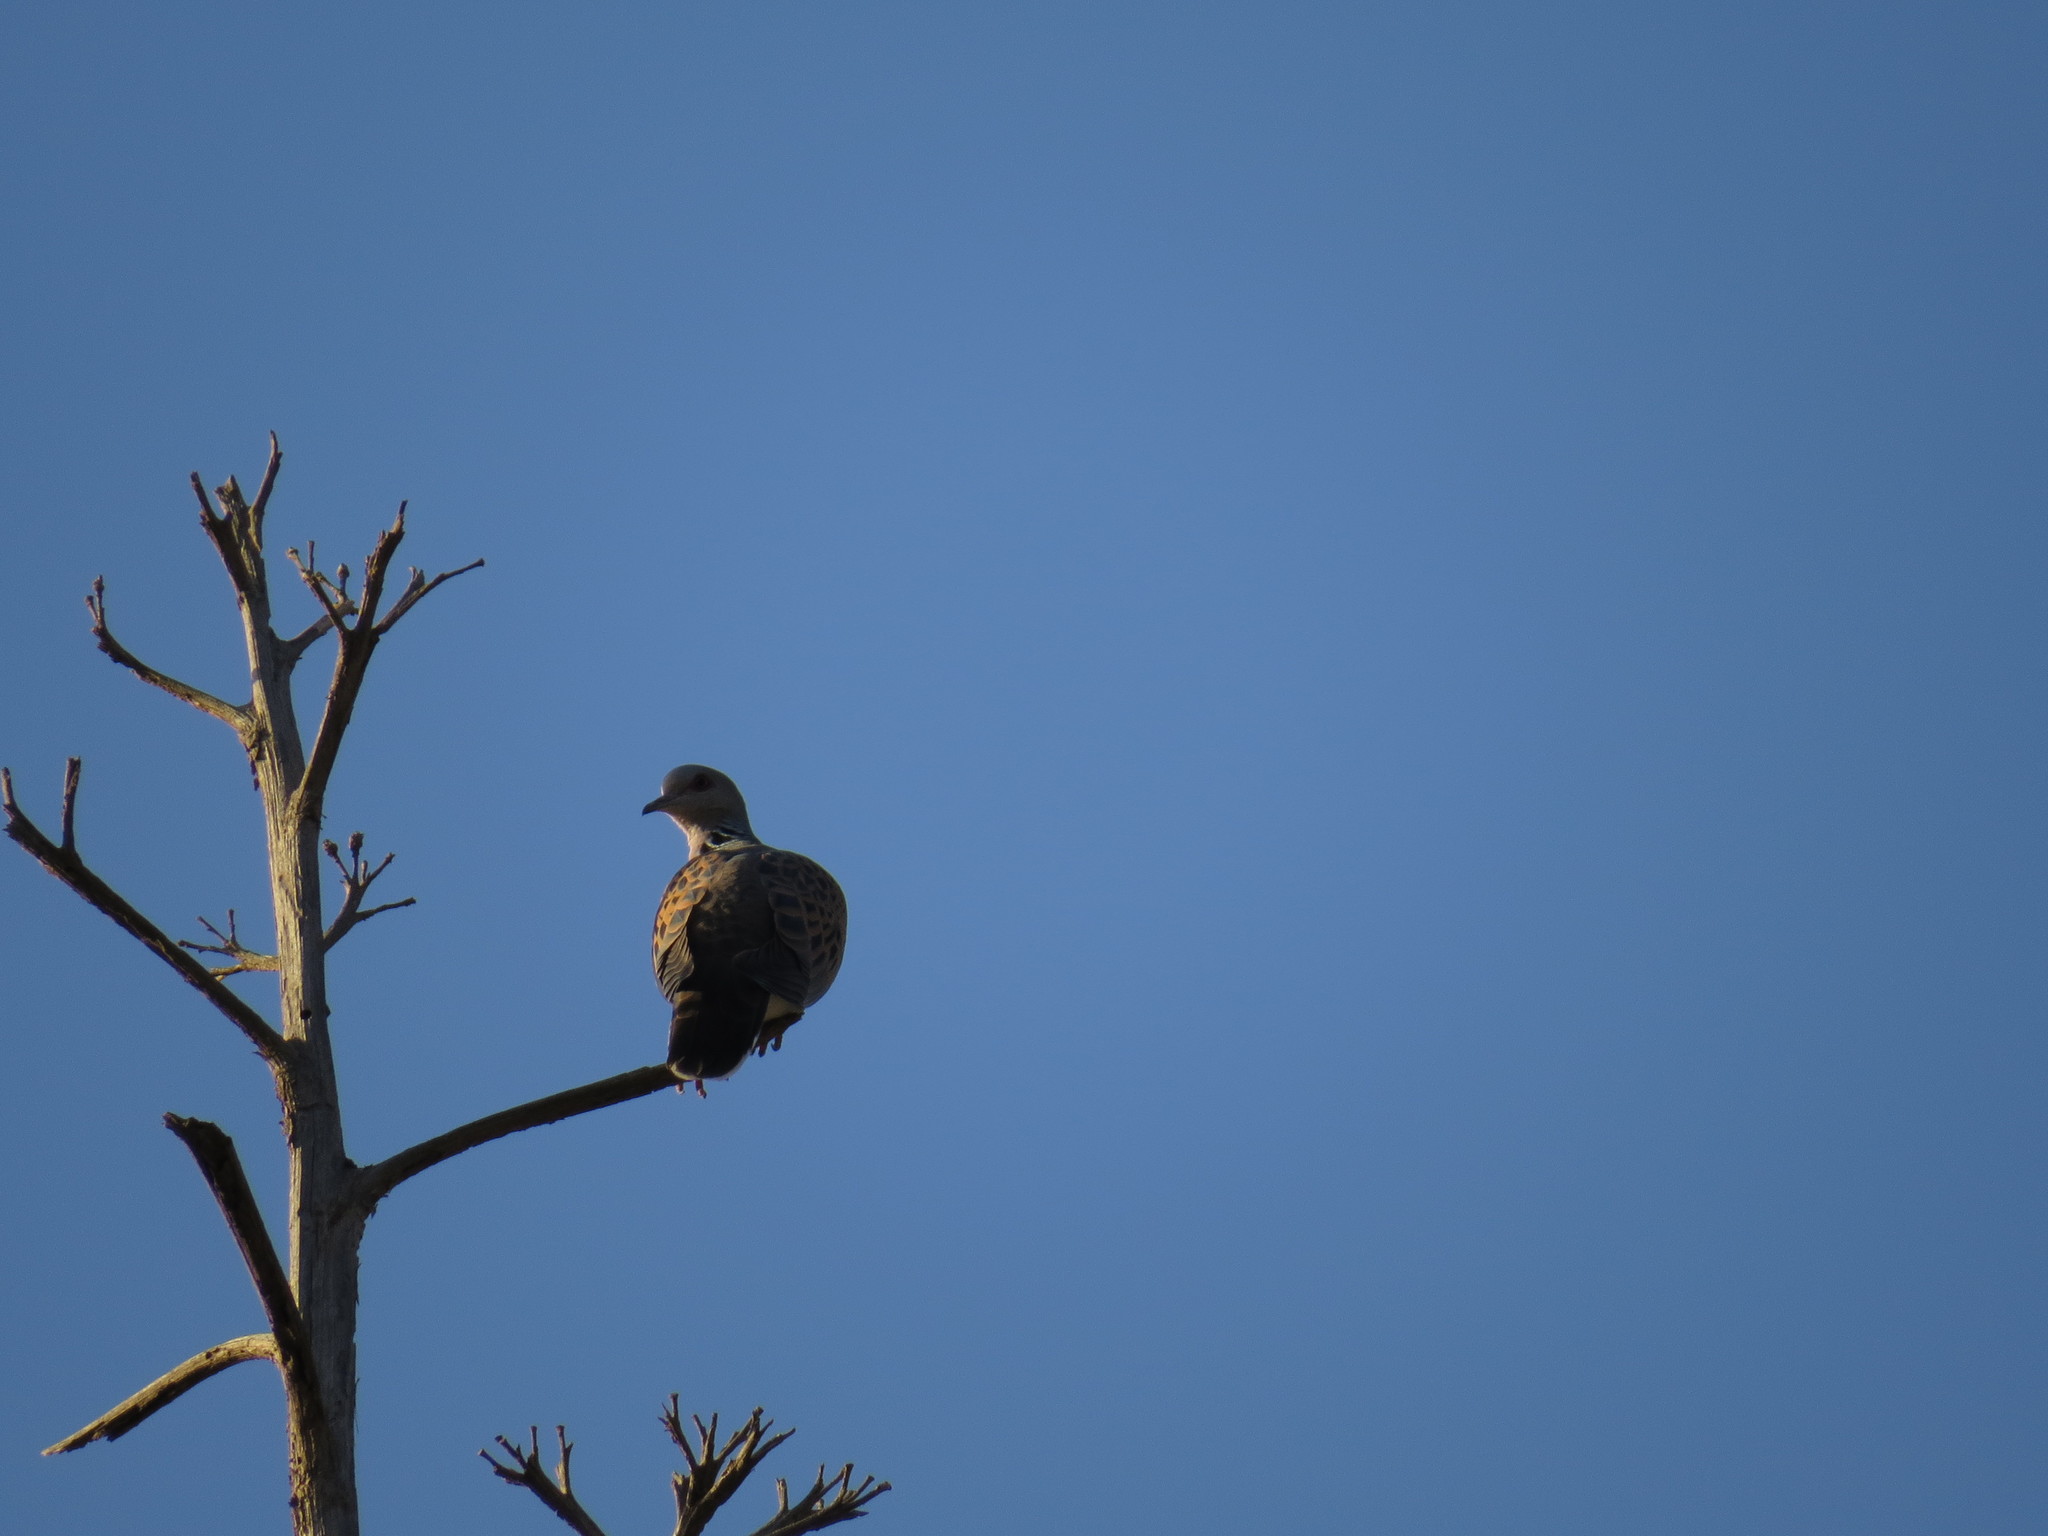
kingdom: Animalia
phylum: Chordata
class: Aves
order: Columbiformes
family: Columbidae
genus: Streptopelia
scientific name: Streptopelia turtur
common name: European turtle dove
